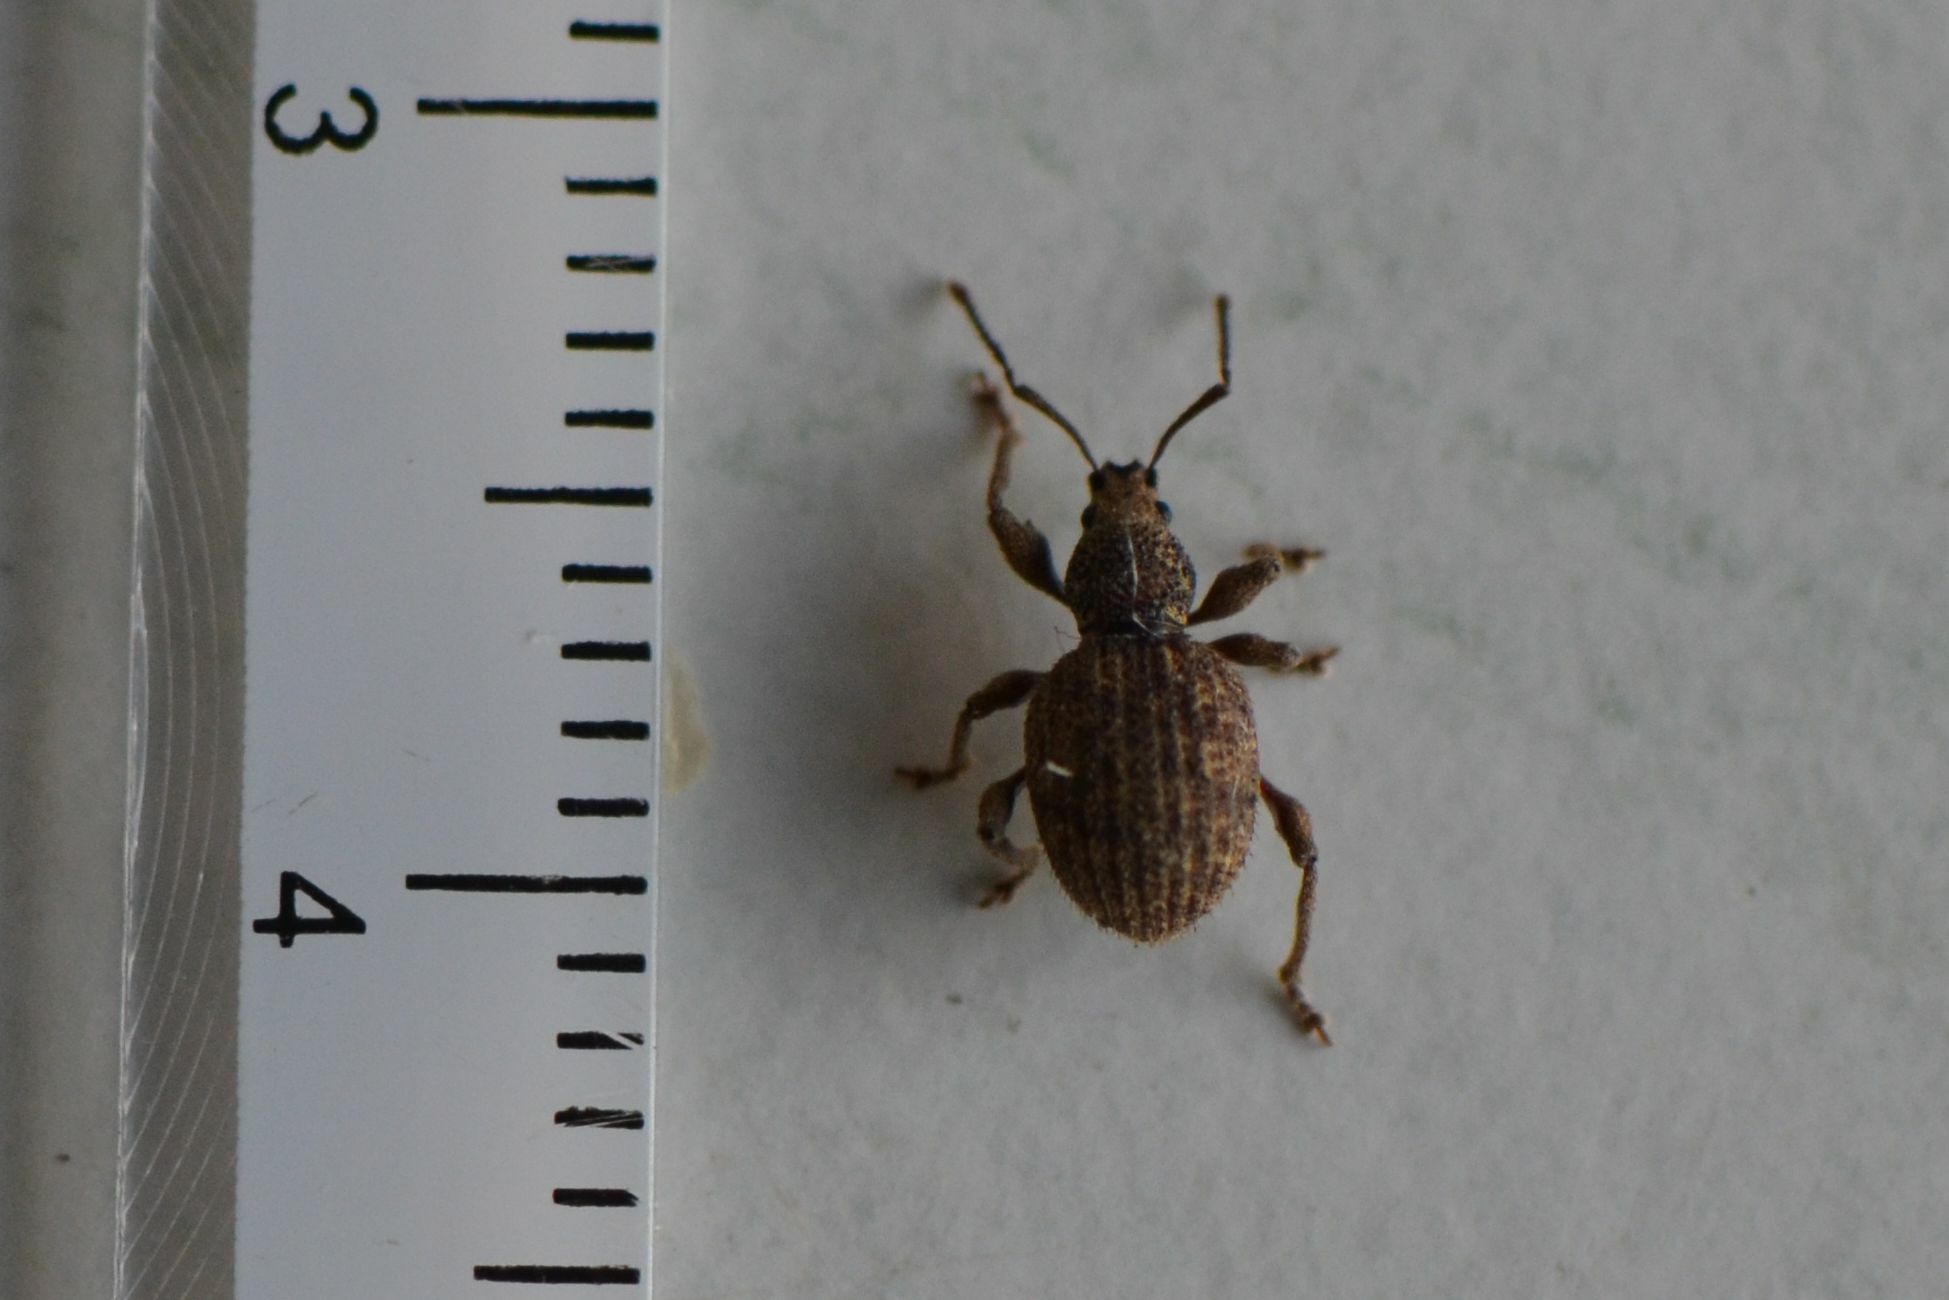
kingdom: Animalia
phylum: Arthropoda
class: Insecta
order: Coleoptera
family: Curculionidae
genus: Otiorhynchus
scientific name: Otiorhynchus crataegi
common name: Privet weevil
